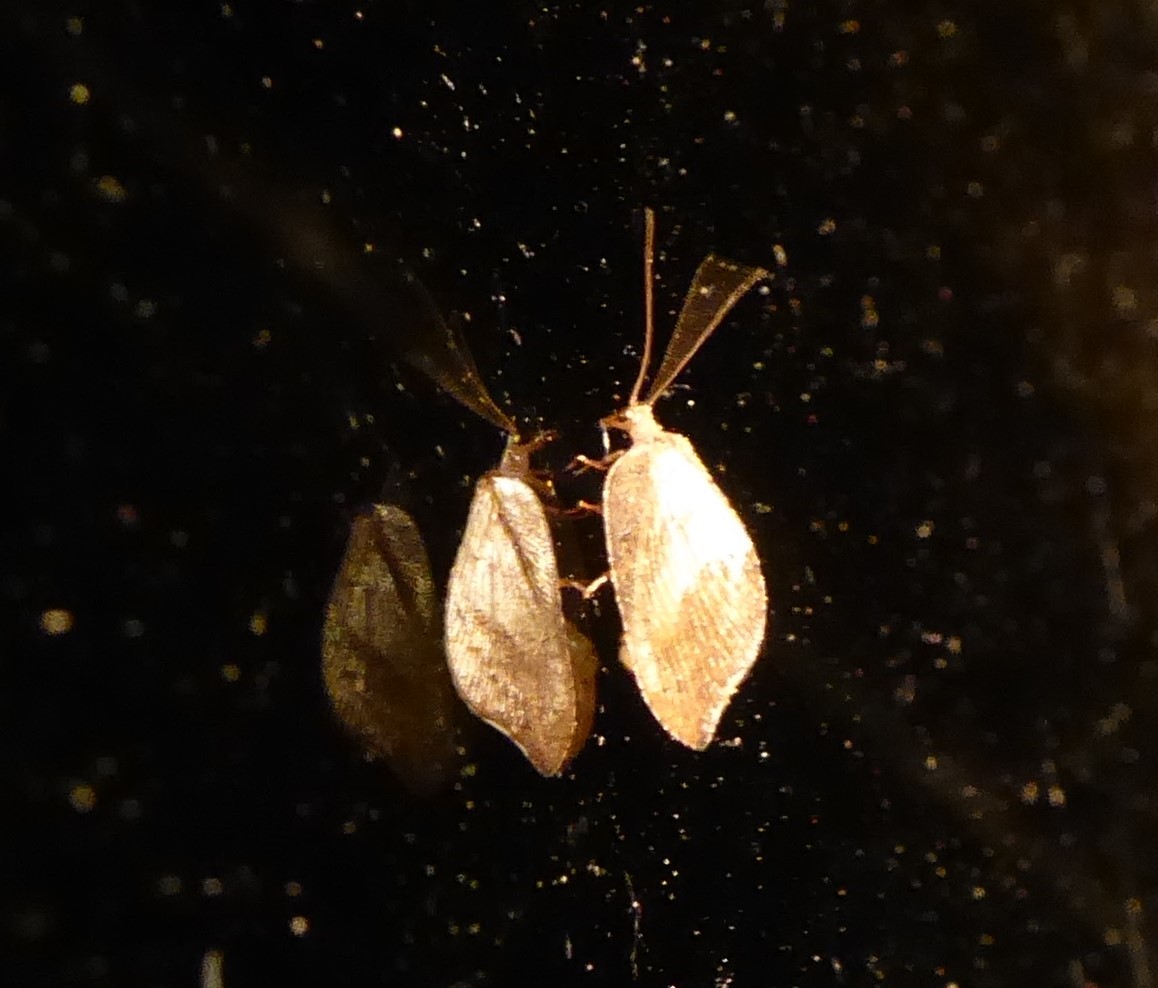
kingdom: Animalia
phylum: Arthropoda
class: Insecta
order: Neuroptera
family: Hemerobiidae
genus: Drepanacra
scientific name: Drepanacra binocula
